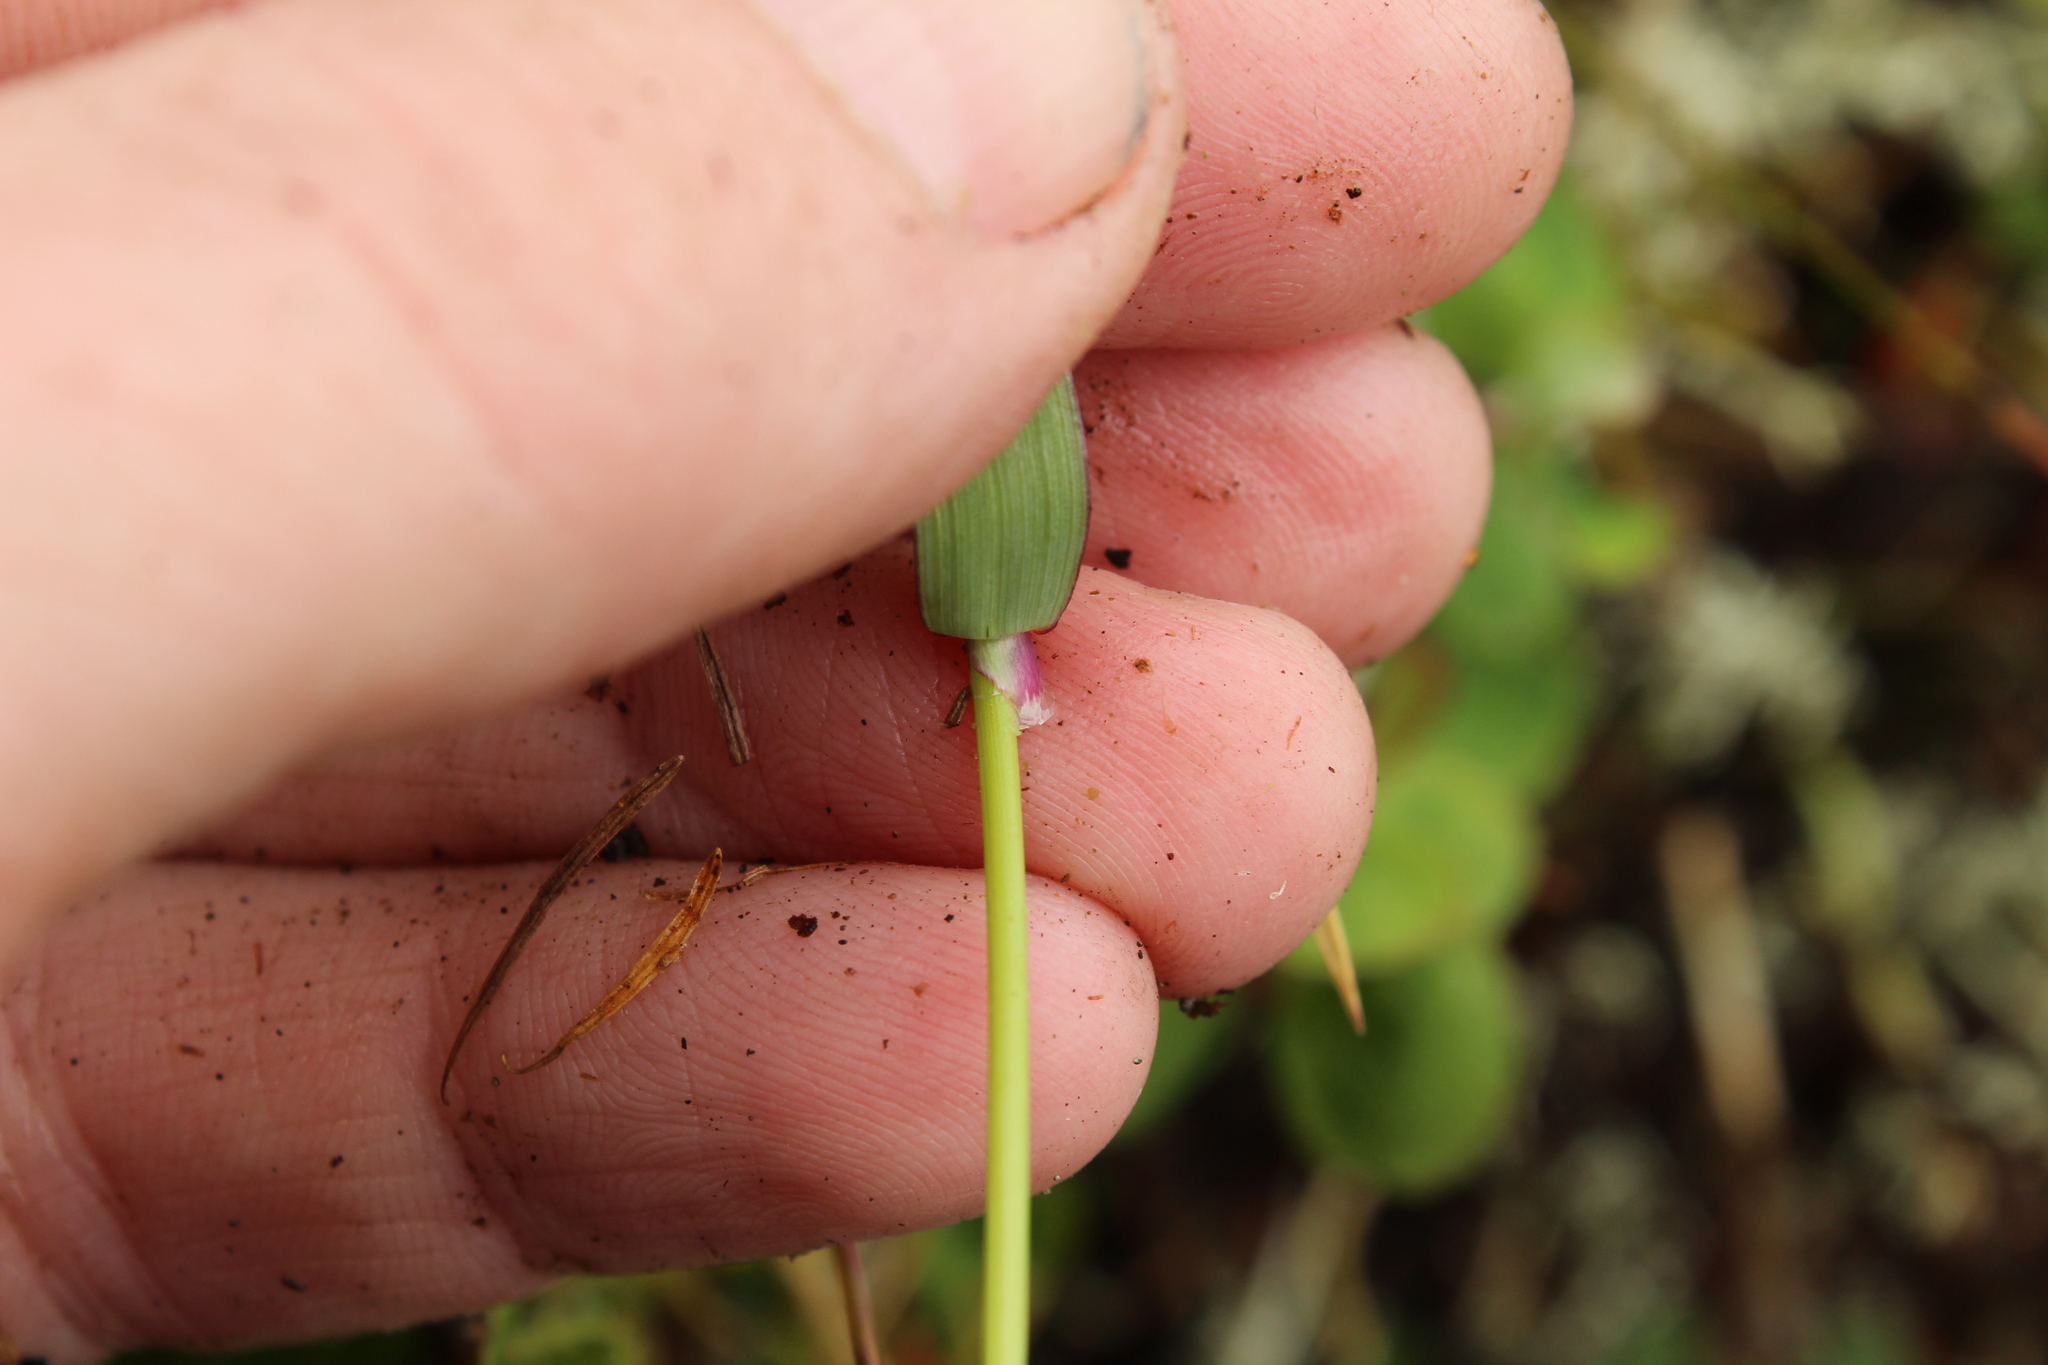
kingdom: Plantae
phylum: Tracheophyta
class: Liliopsida
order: Poales
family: Poaceae
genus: Arctagrostis
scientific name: Arctagrostis latifolia
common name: Arctic grass
